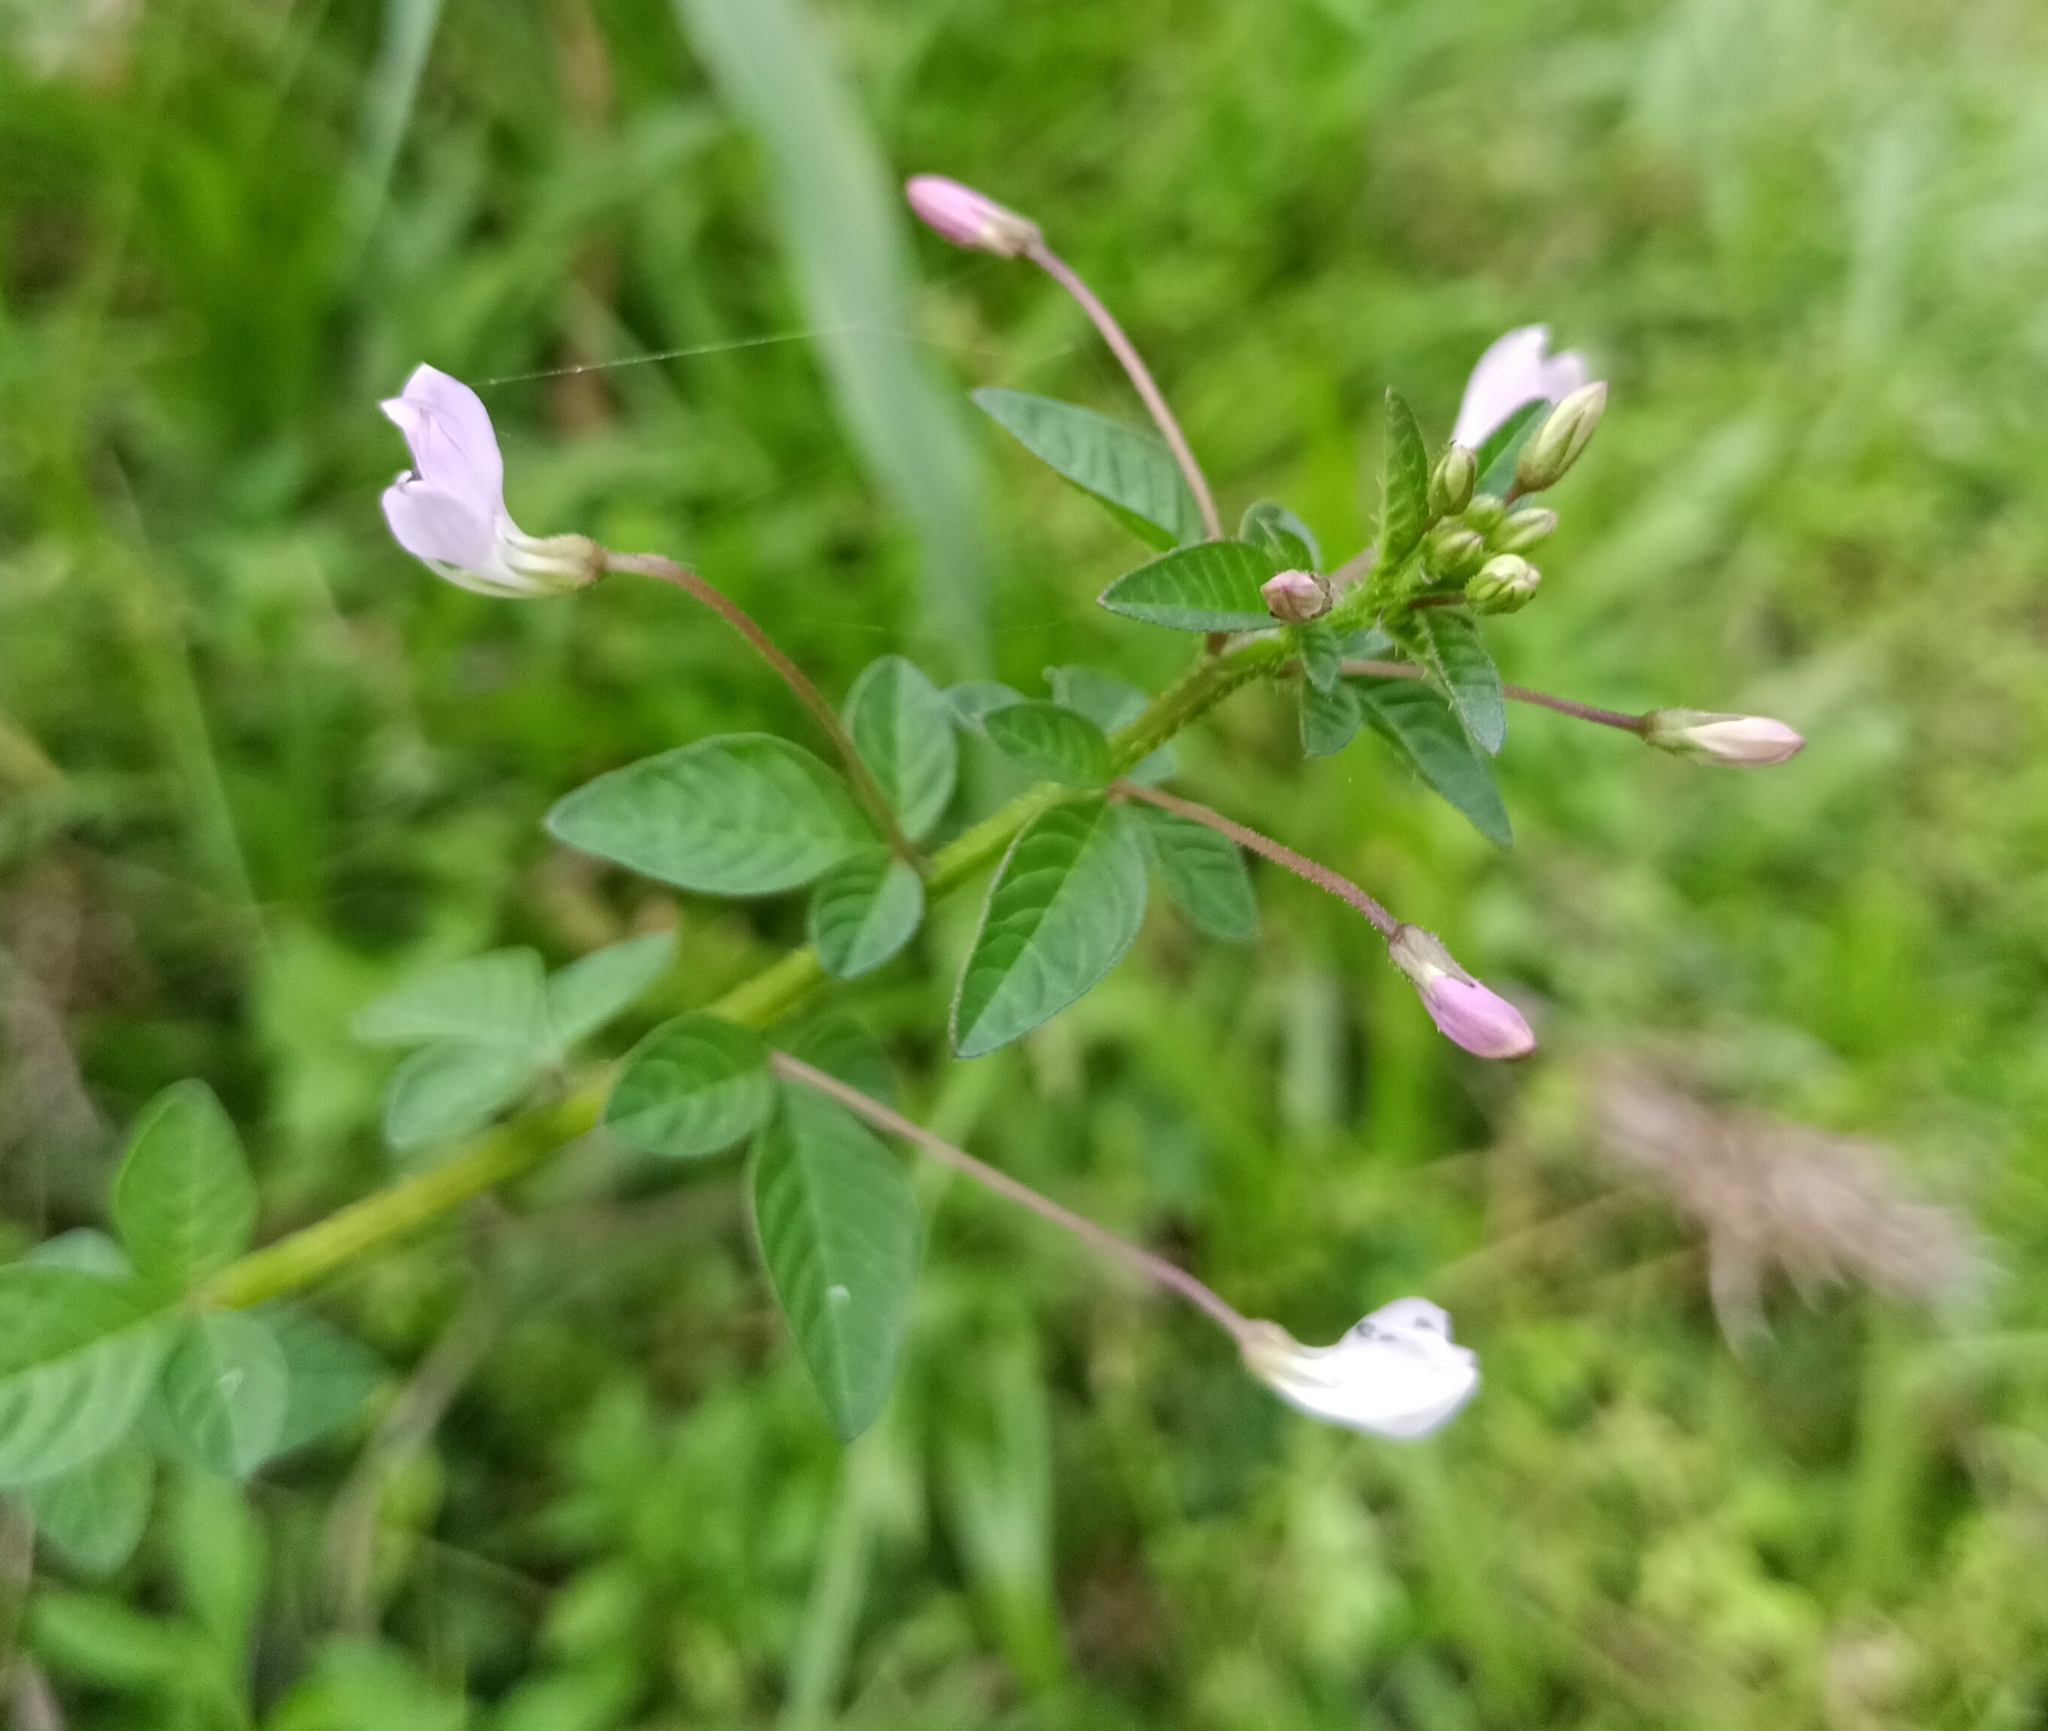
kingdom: Plantae
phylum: Tracheophyta
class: Magnoliopsida
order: Brassicales
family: Cleomaceae
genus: Sieruela
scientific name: Sieruela rutidosperma
